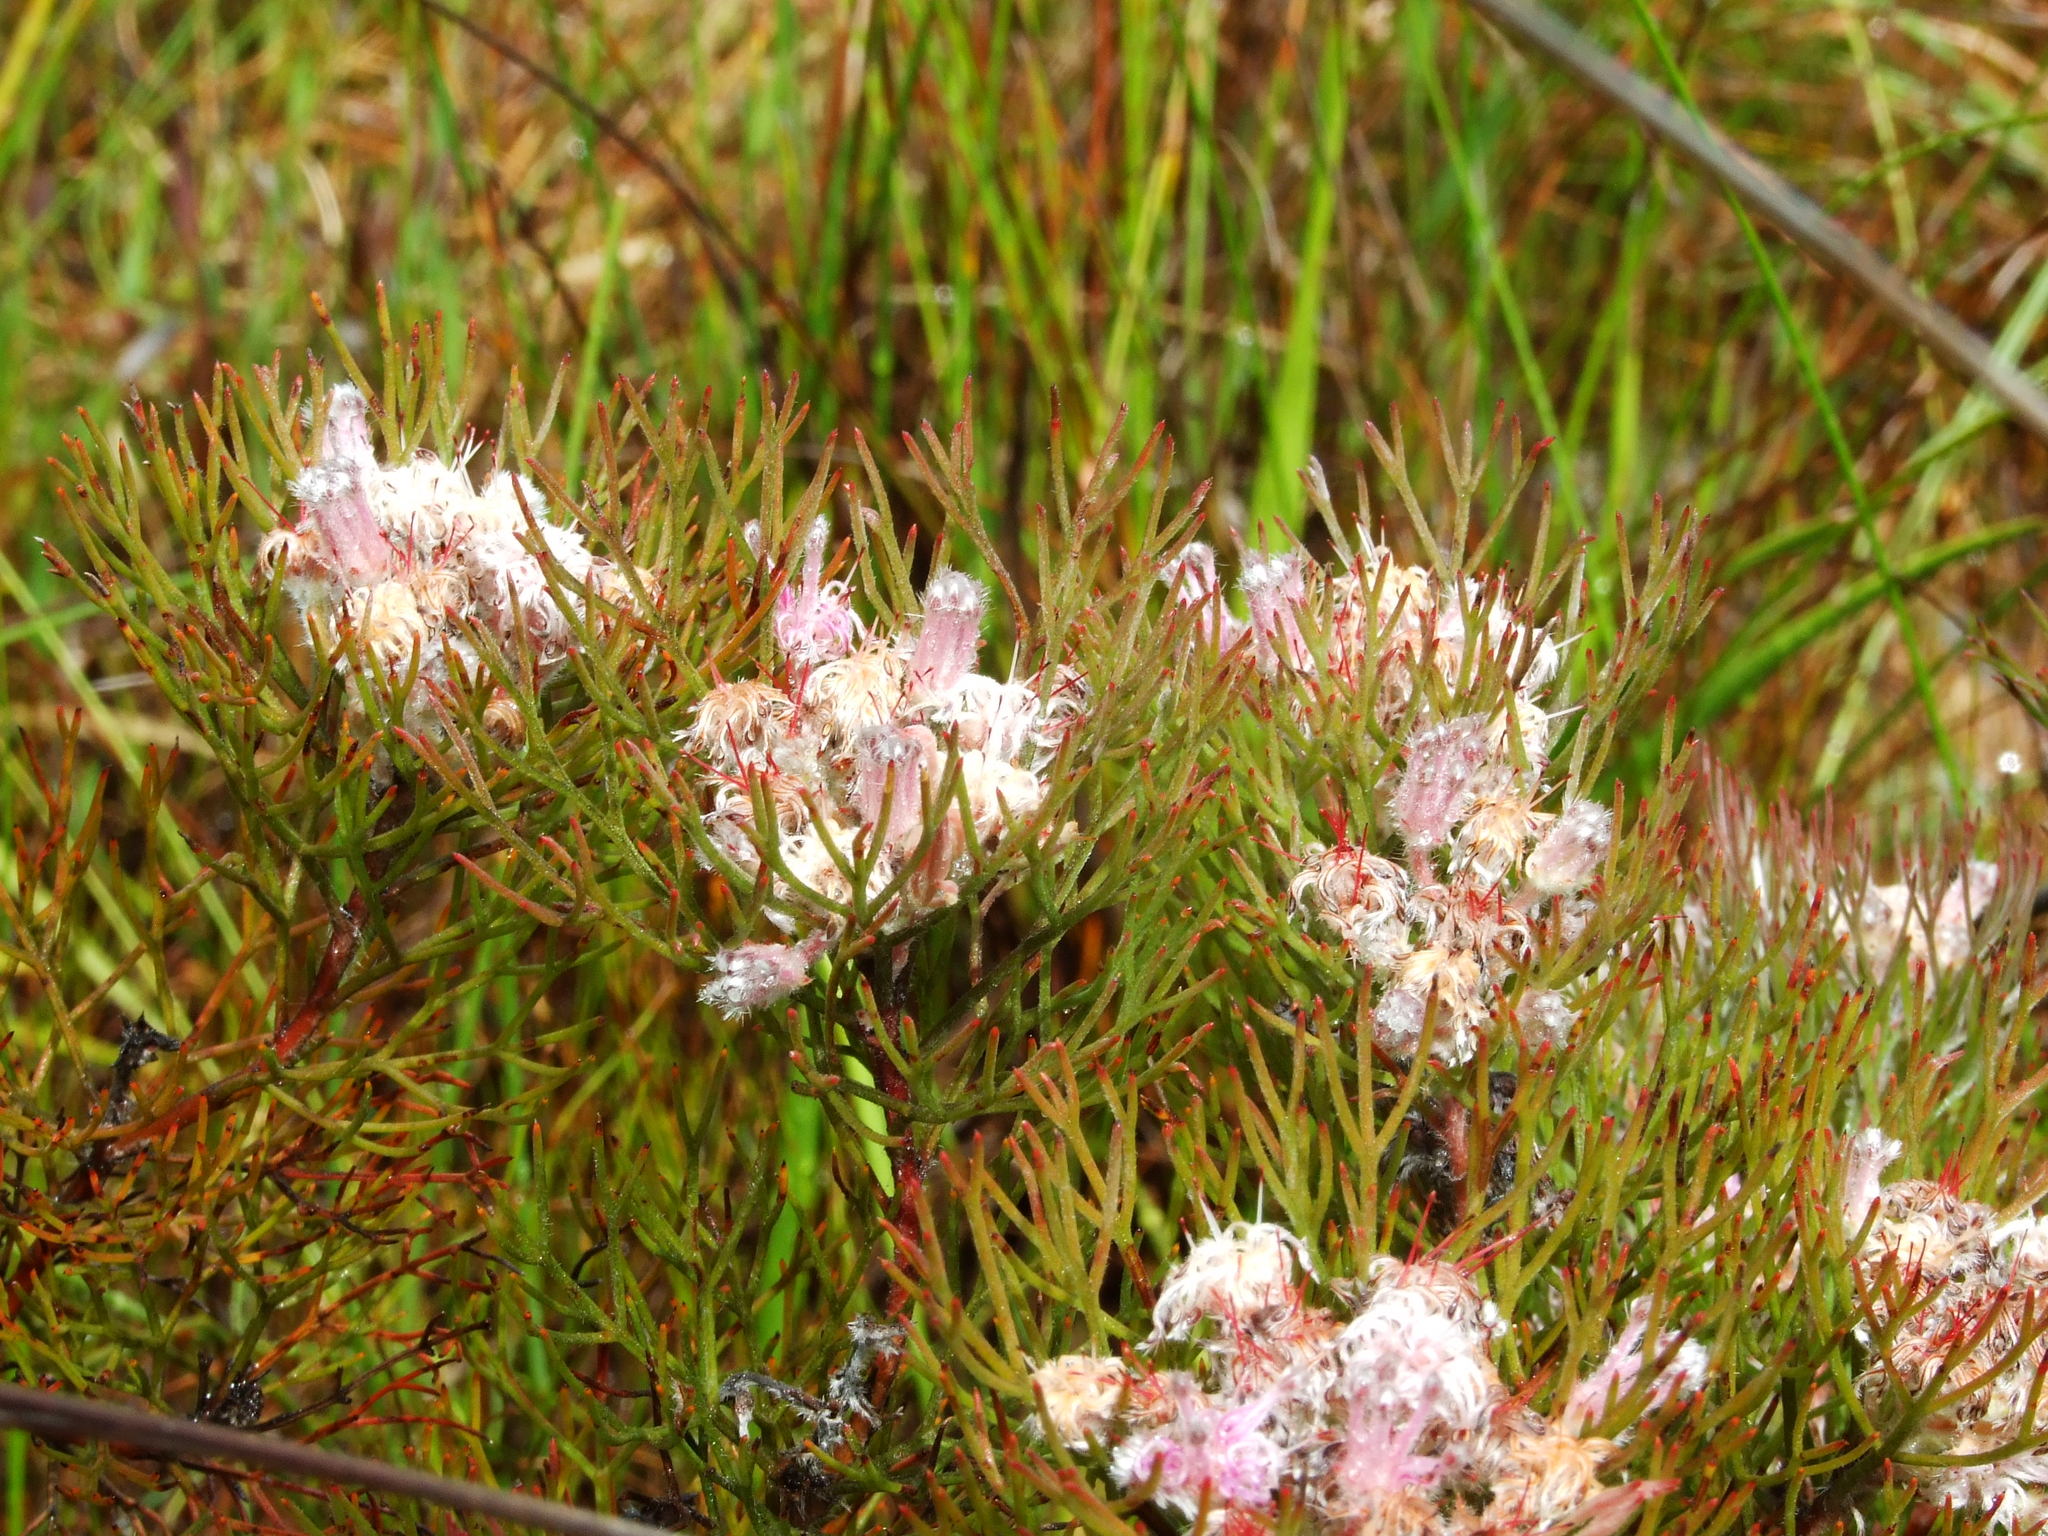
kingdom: Plantae
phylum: Tracheophyta
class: Magnoliopsida
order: Proteales
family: Proteaceae
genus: Serruria
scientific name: Serruria candicans
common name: Shiny spiderhead
